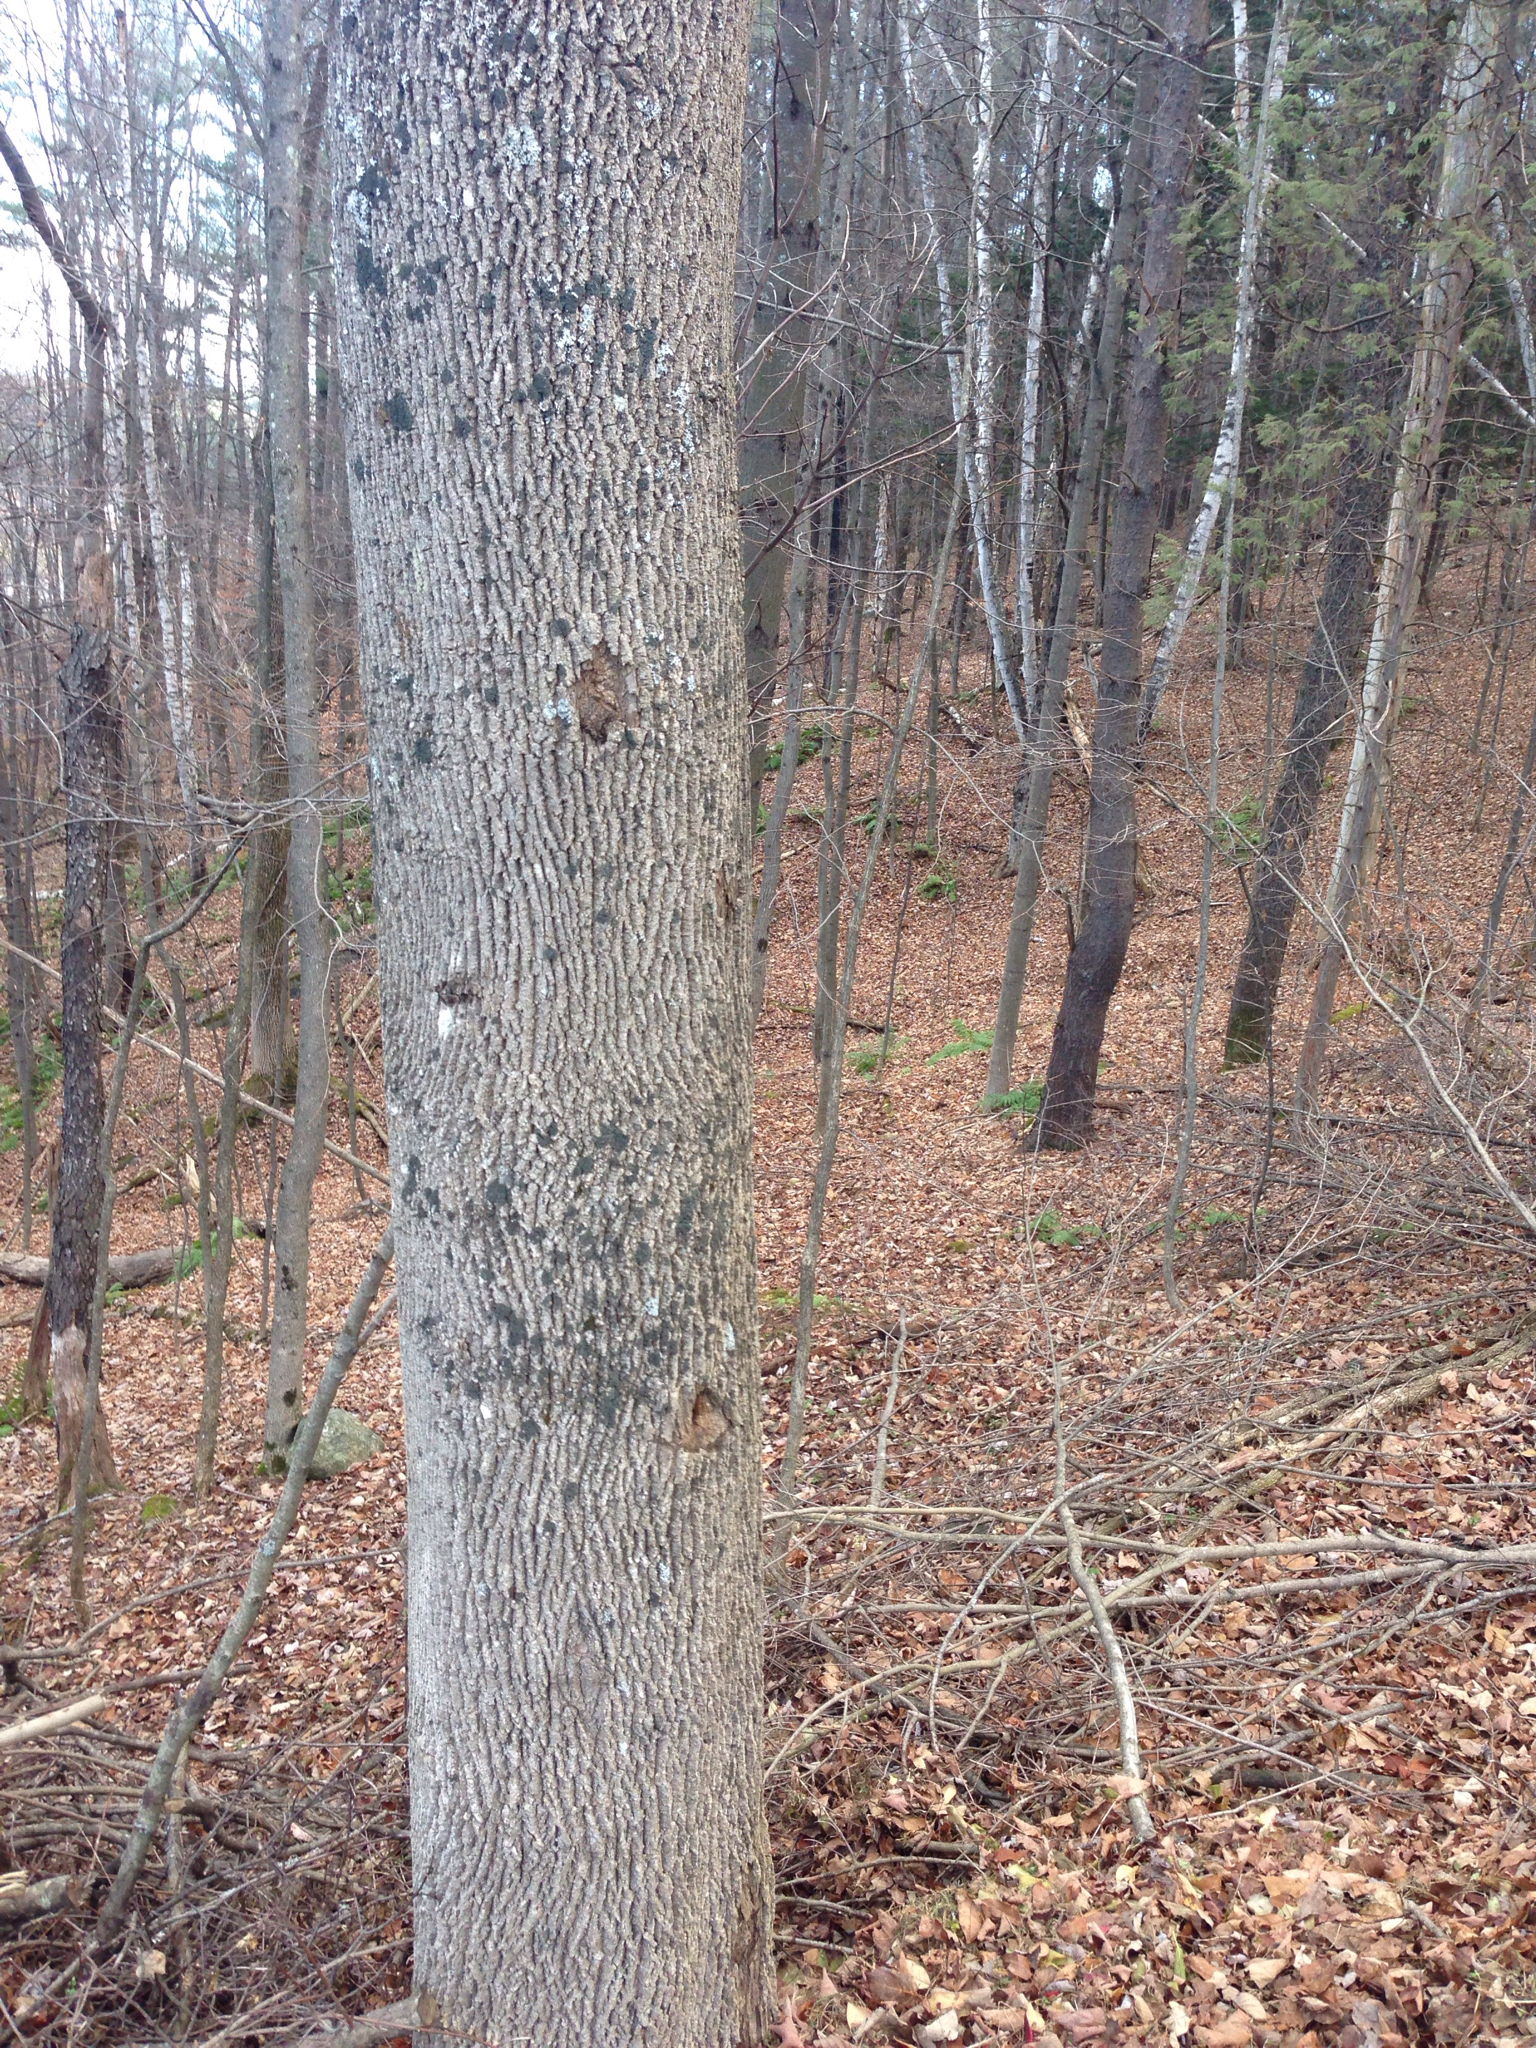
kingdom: Plantae
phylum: Tracheophyta
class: Magnoliopsida
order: Lamiales
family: Oleaceae
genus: Fraxinus
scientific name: Fraxinus americana
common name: White ash
